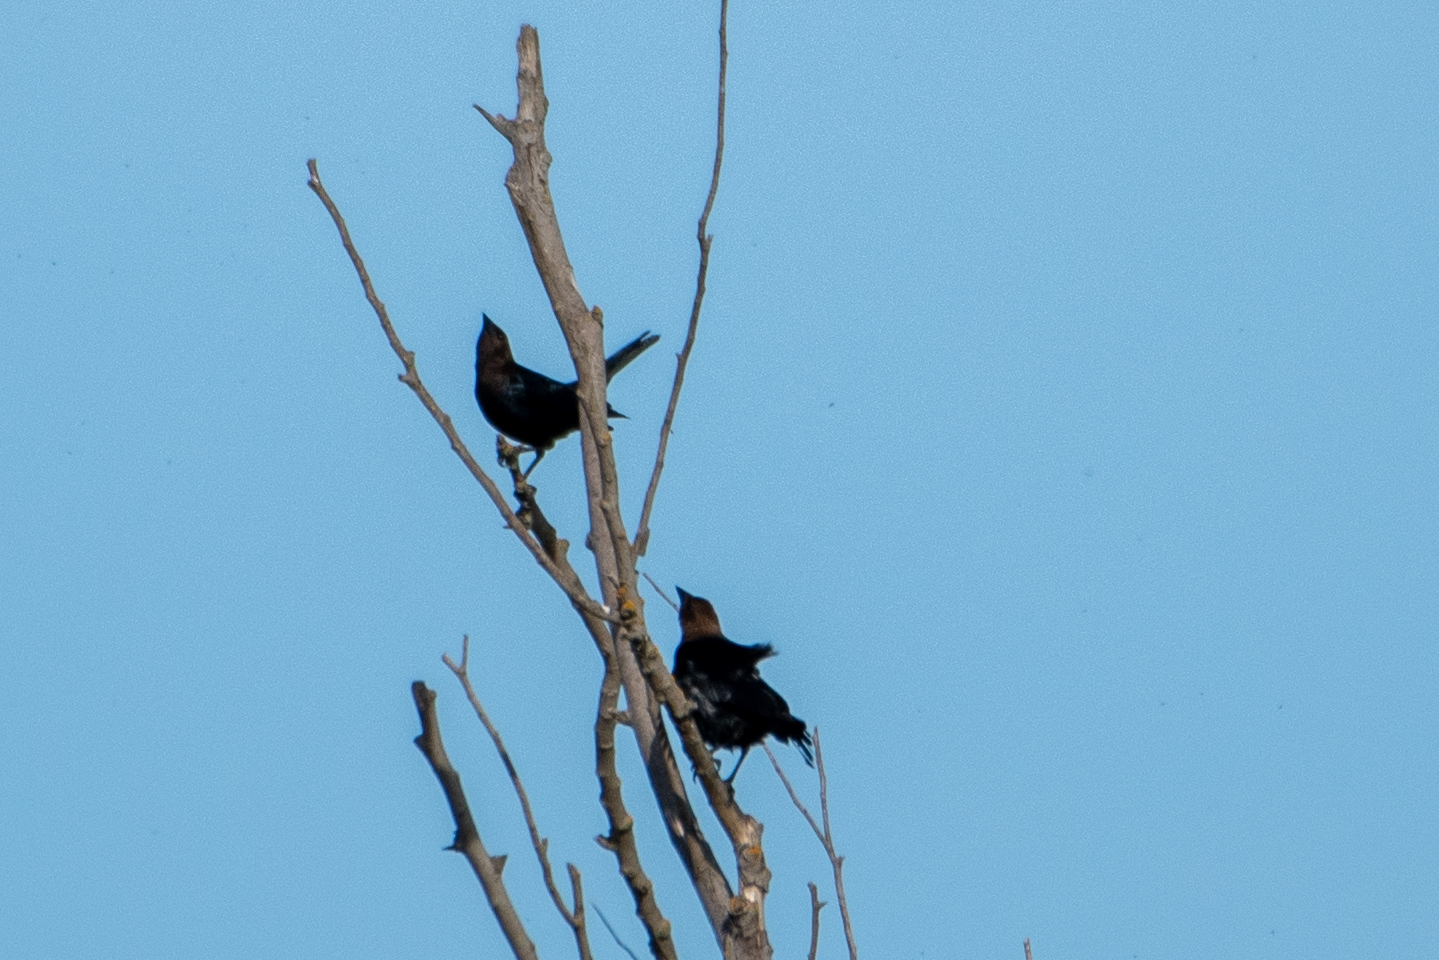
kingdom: Animalia
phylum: Chordata
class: Aves
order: Passeriformes
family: Icteridae
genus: Molothrus
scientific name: Molothrus ater
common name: Brown-headed cowbird
